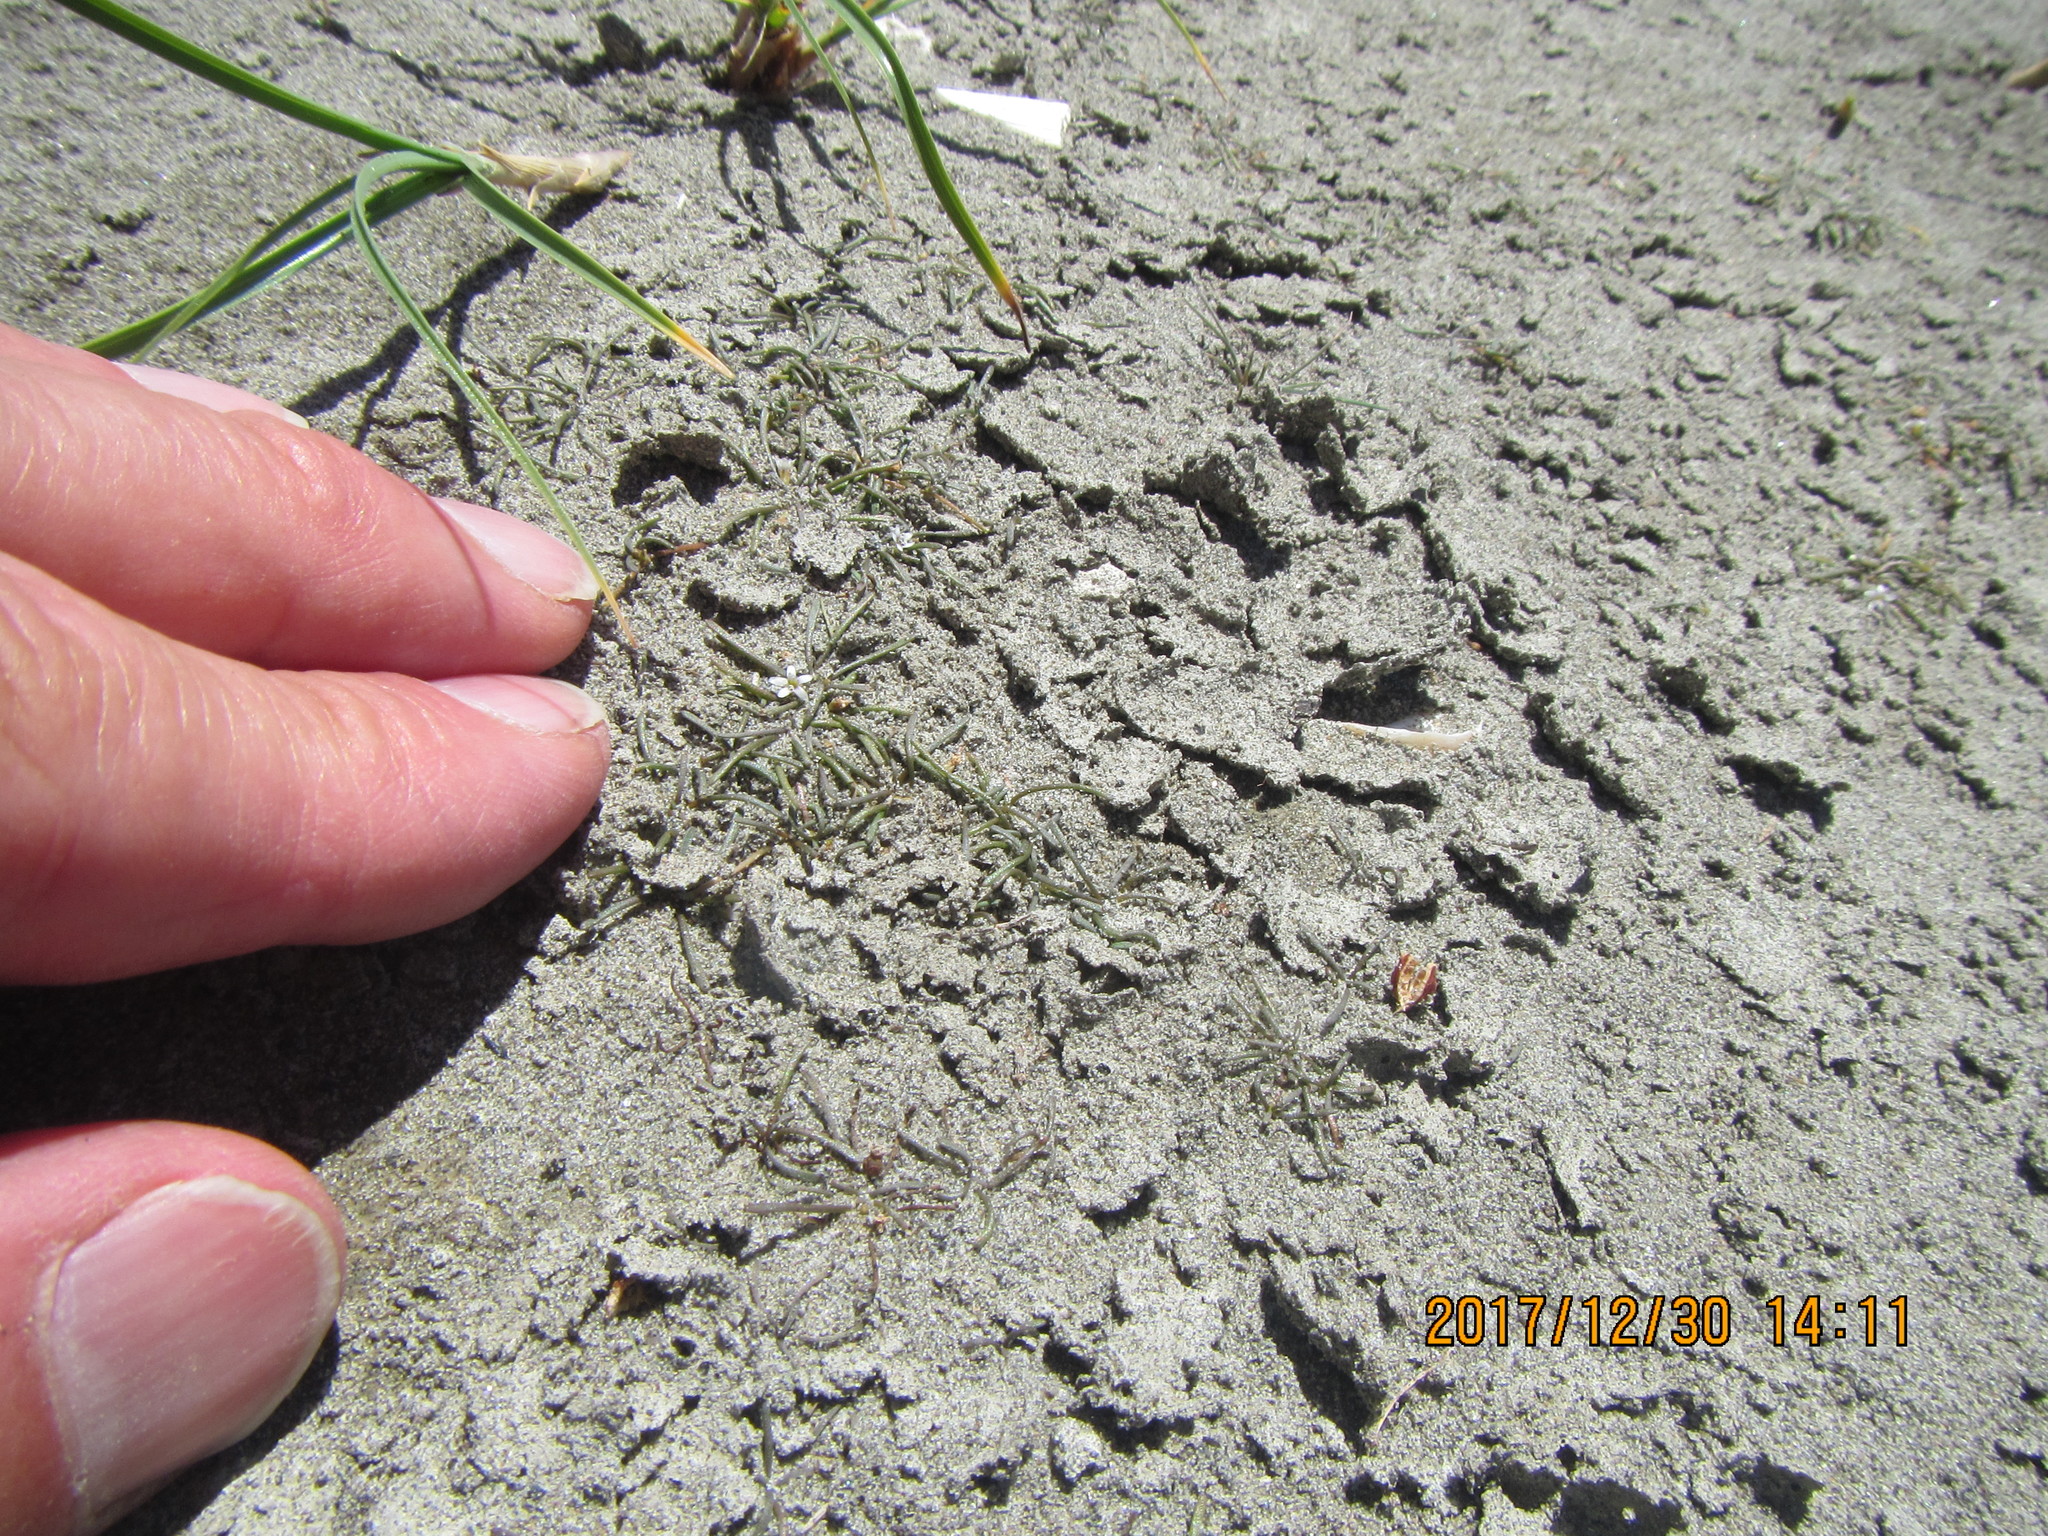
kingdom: Plantae
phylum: Tracheophyta
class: Magnoliopsida
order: Lamiales
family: Scrophulariaceae
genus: Limosella
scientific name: Limosella australis
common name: Welsh mudwort
